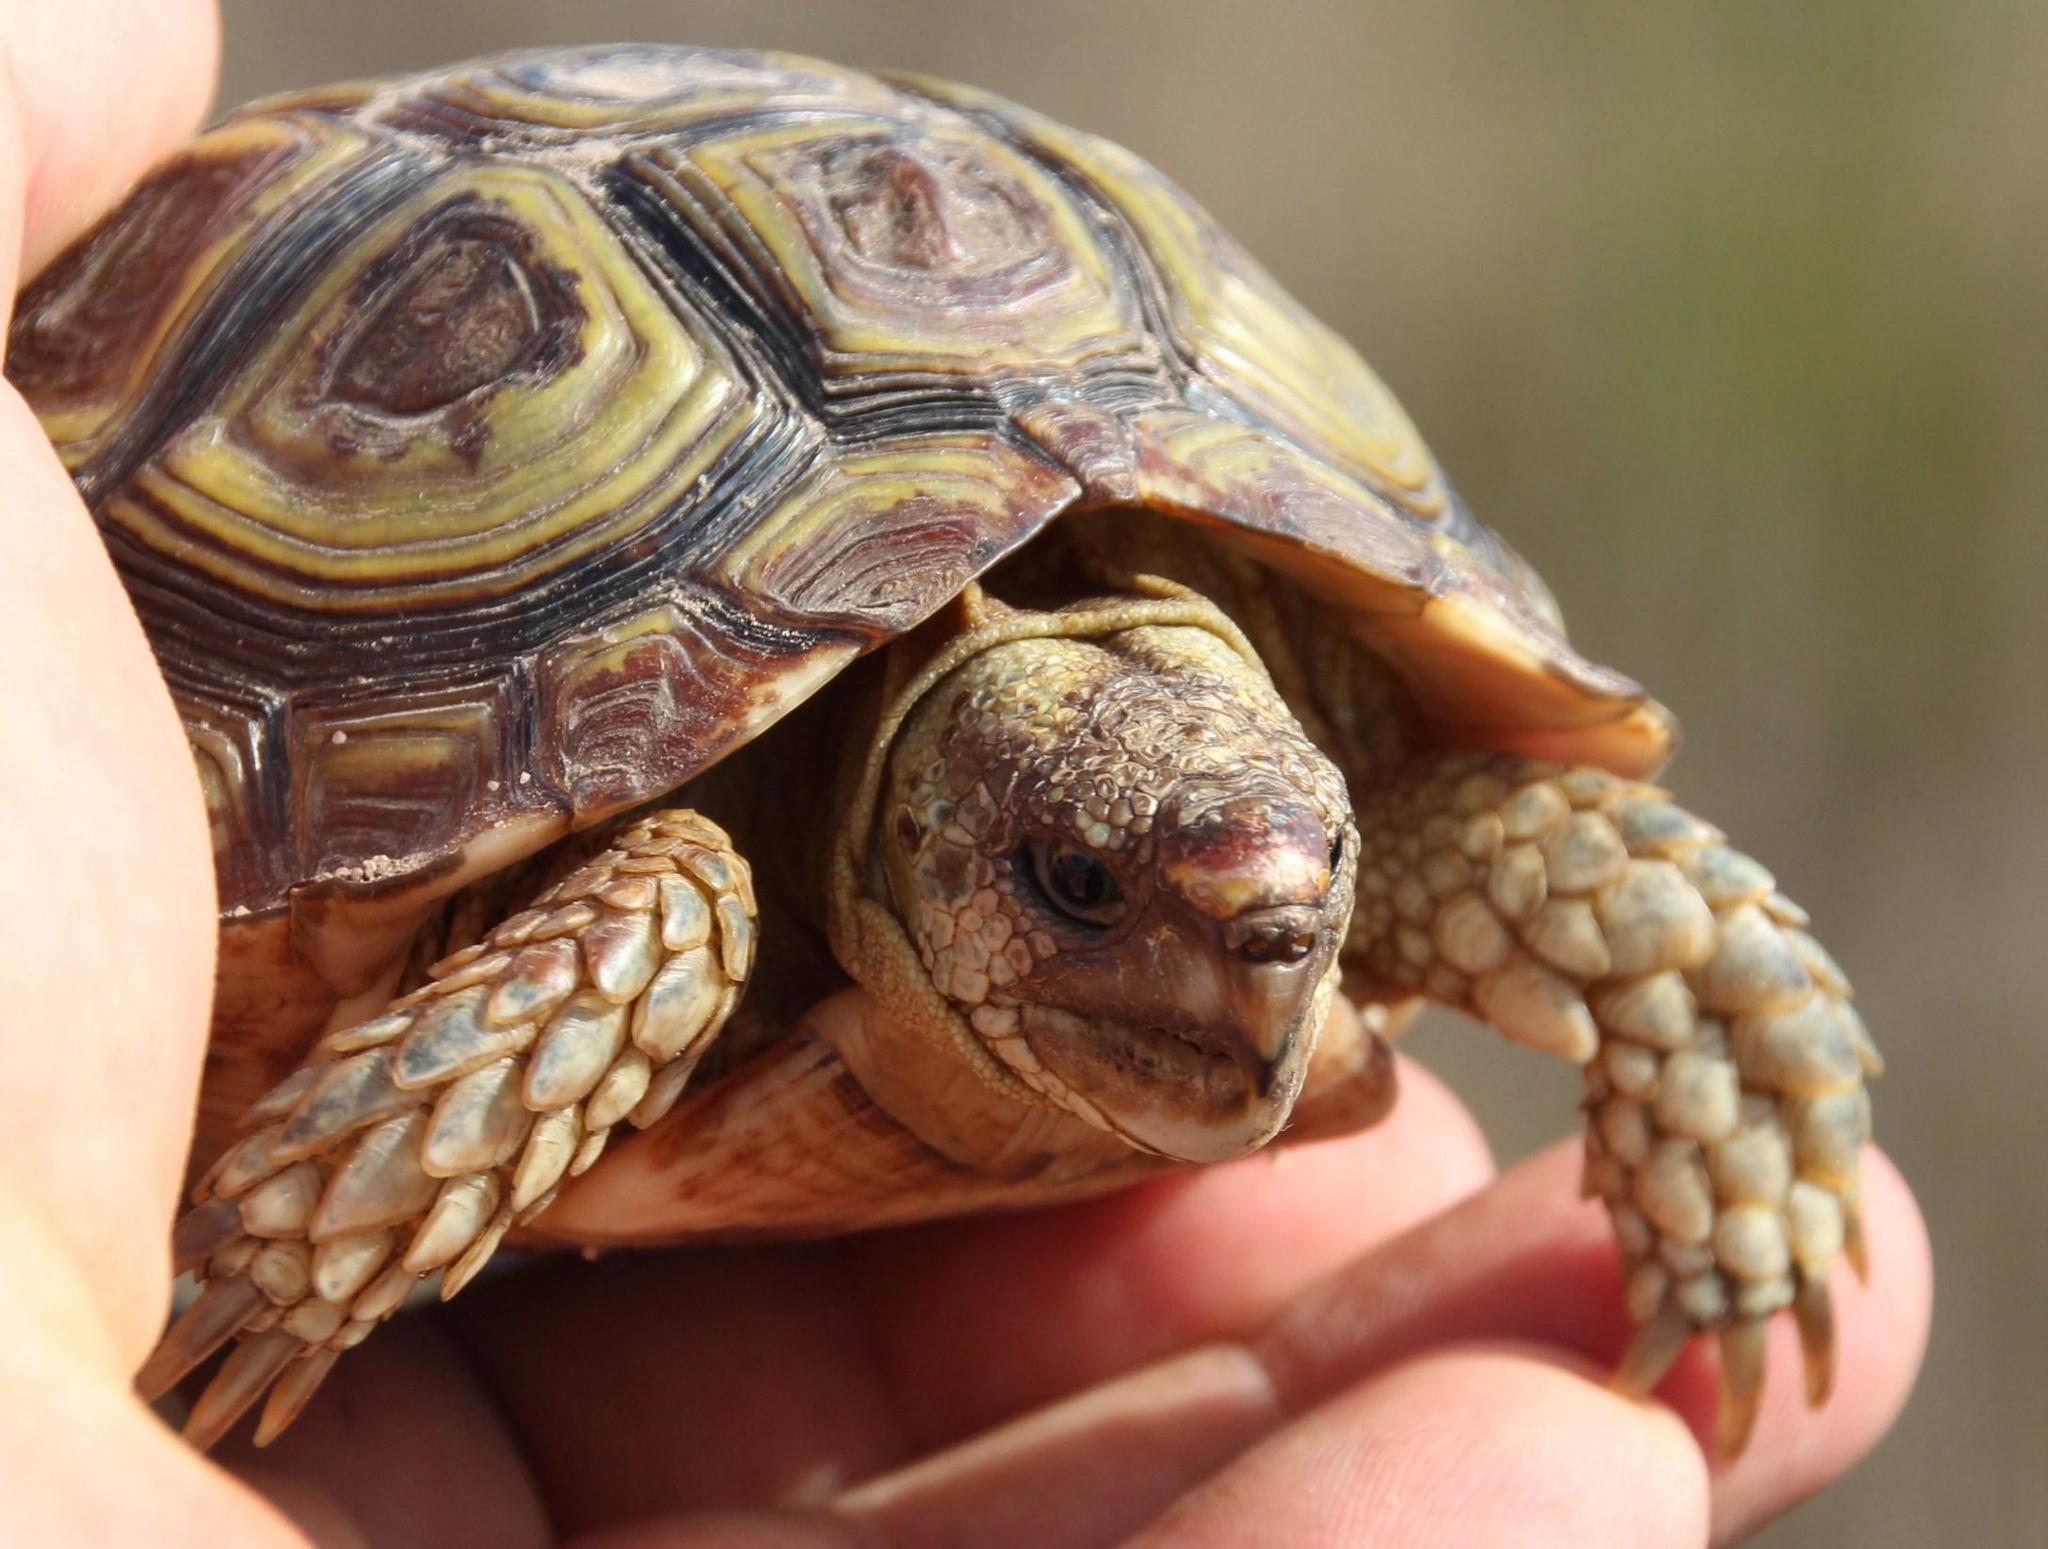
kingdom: Animalia
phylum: Chordata
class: Testudines
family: Testudinidae
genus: Homopus
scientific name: Homopus areolatus
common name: Parrot-beaked tortoise
